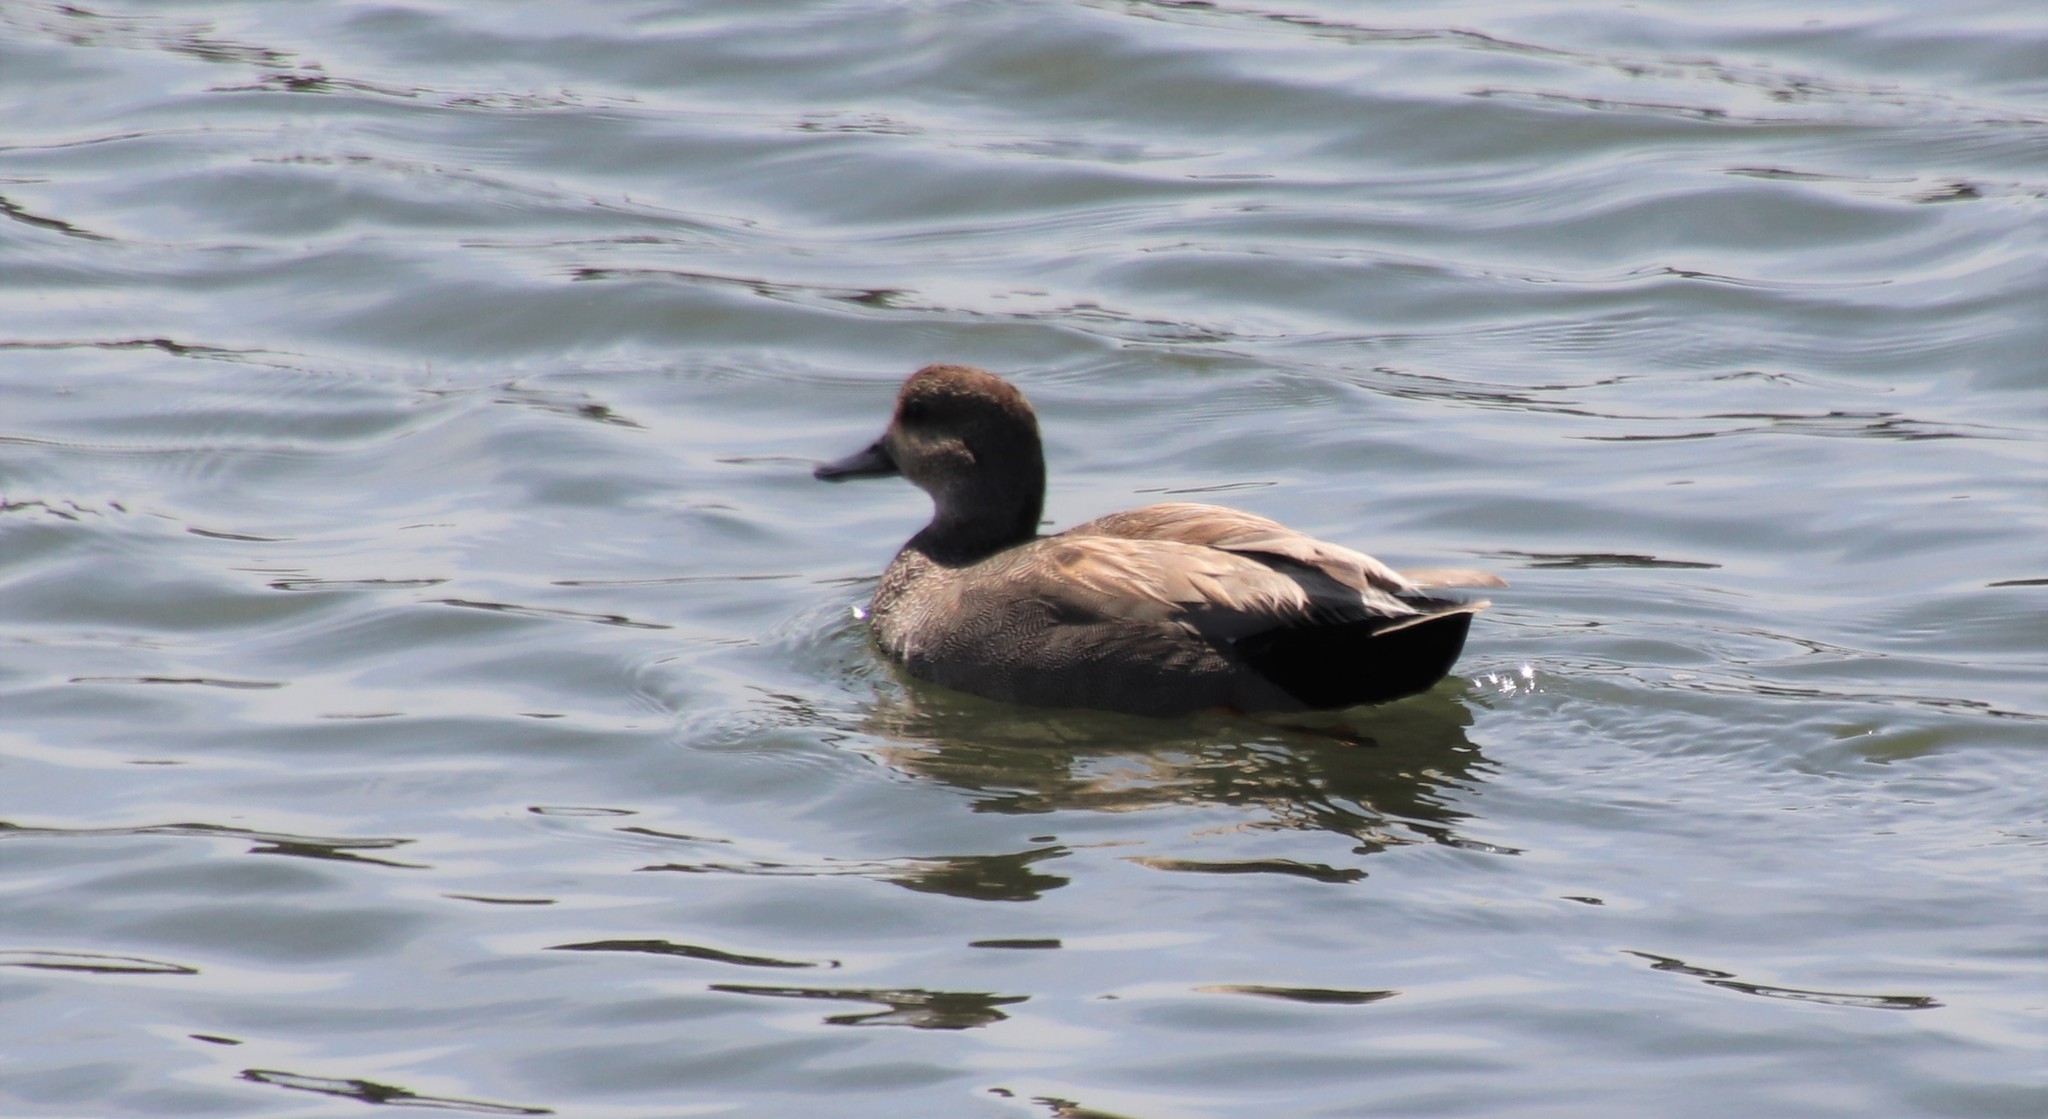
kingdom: Animalia
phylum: Chordata
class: Aves
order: Anseriformes
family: Anatidae
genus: Mareca
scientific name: Mareca strepera
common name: Gadwall
